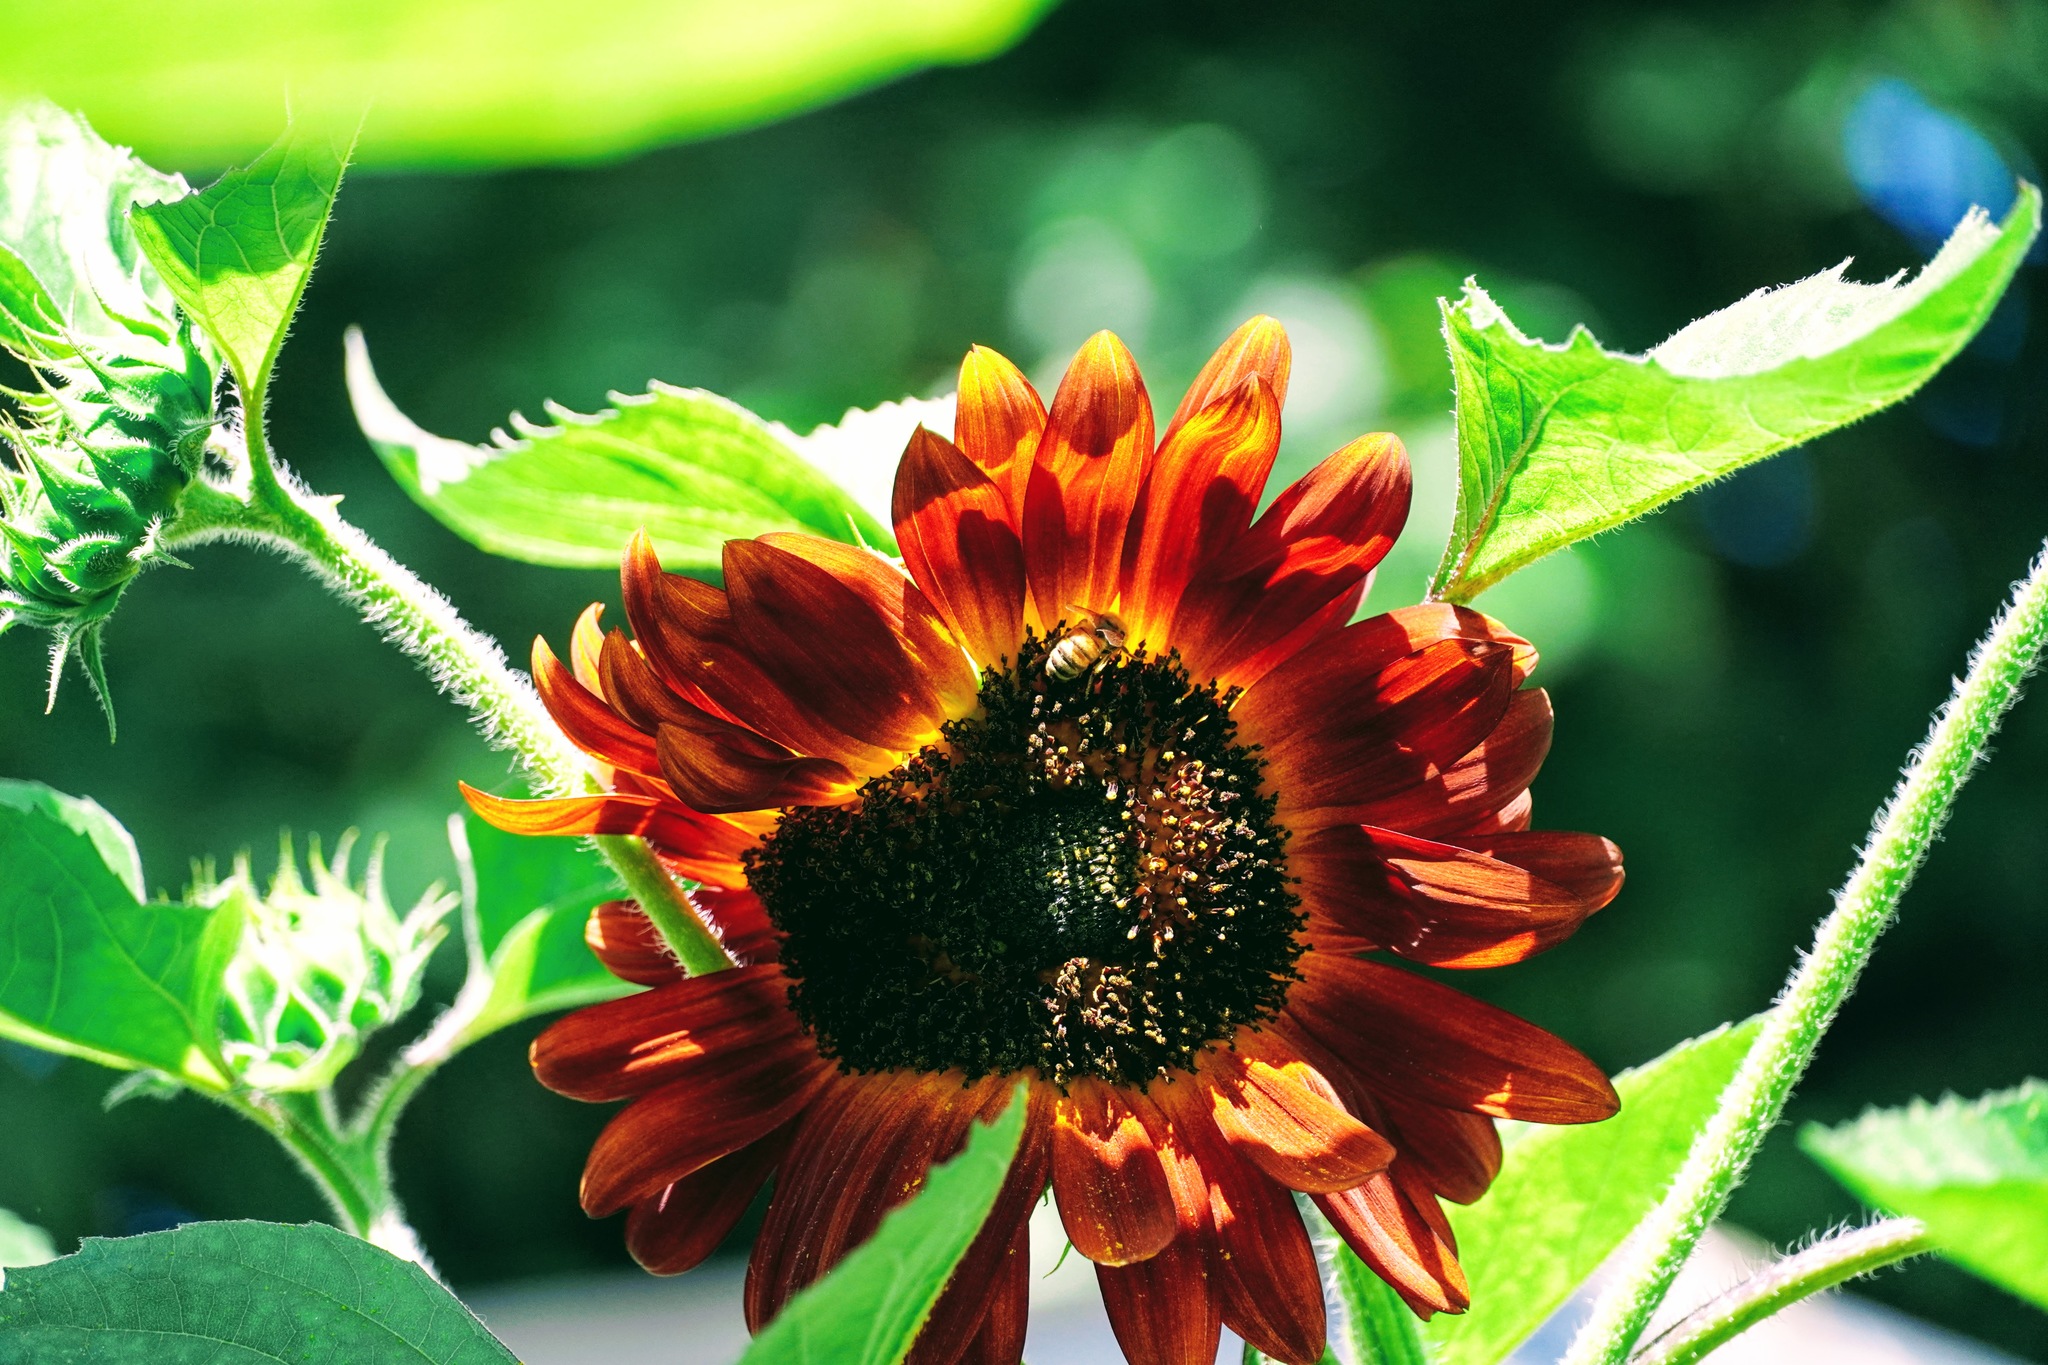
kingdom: Animalia
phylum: Arthropoda
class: Insecta
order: Hymenoptera
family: Apidae
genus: Apis
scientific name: Apis mellifera
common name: Honey bee
